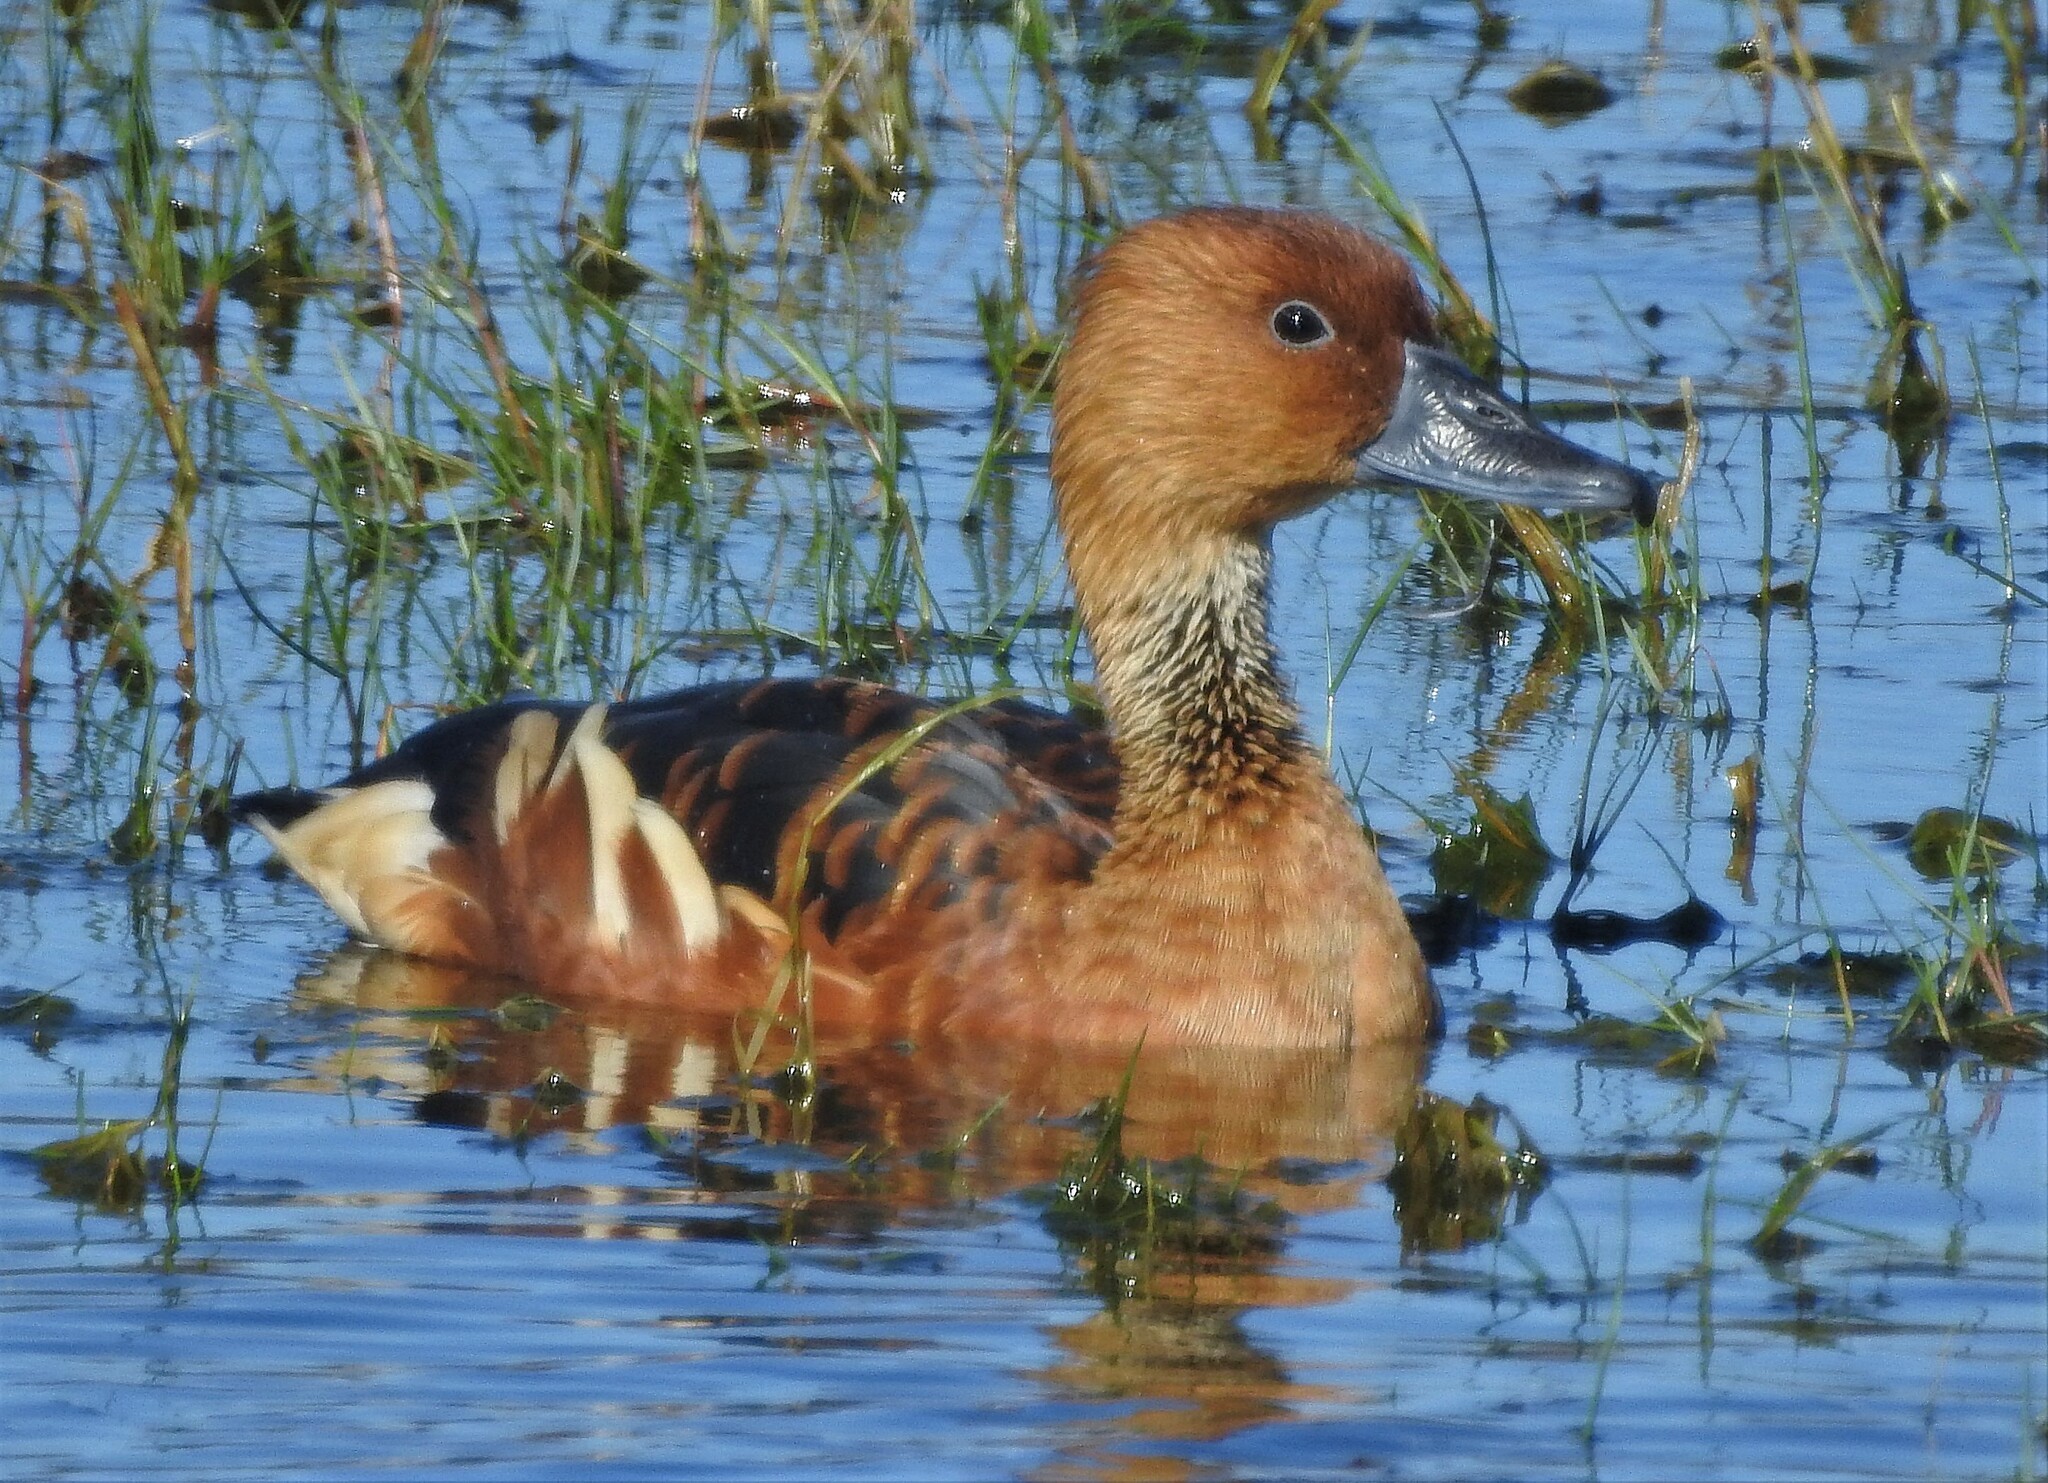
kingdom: Animalia
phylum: Chordata
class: Aves
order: Anseriformes
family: Anatidae
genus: Dendrocygna
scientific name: Dendrocygna bicolor
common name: Fulvous whistling duck
